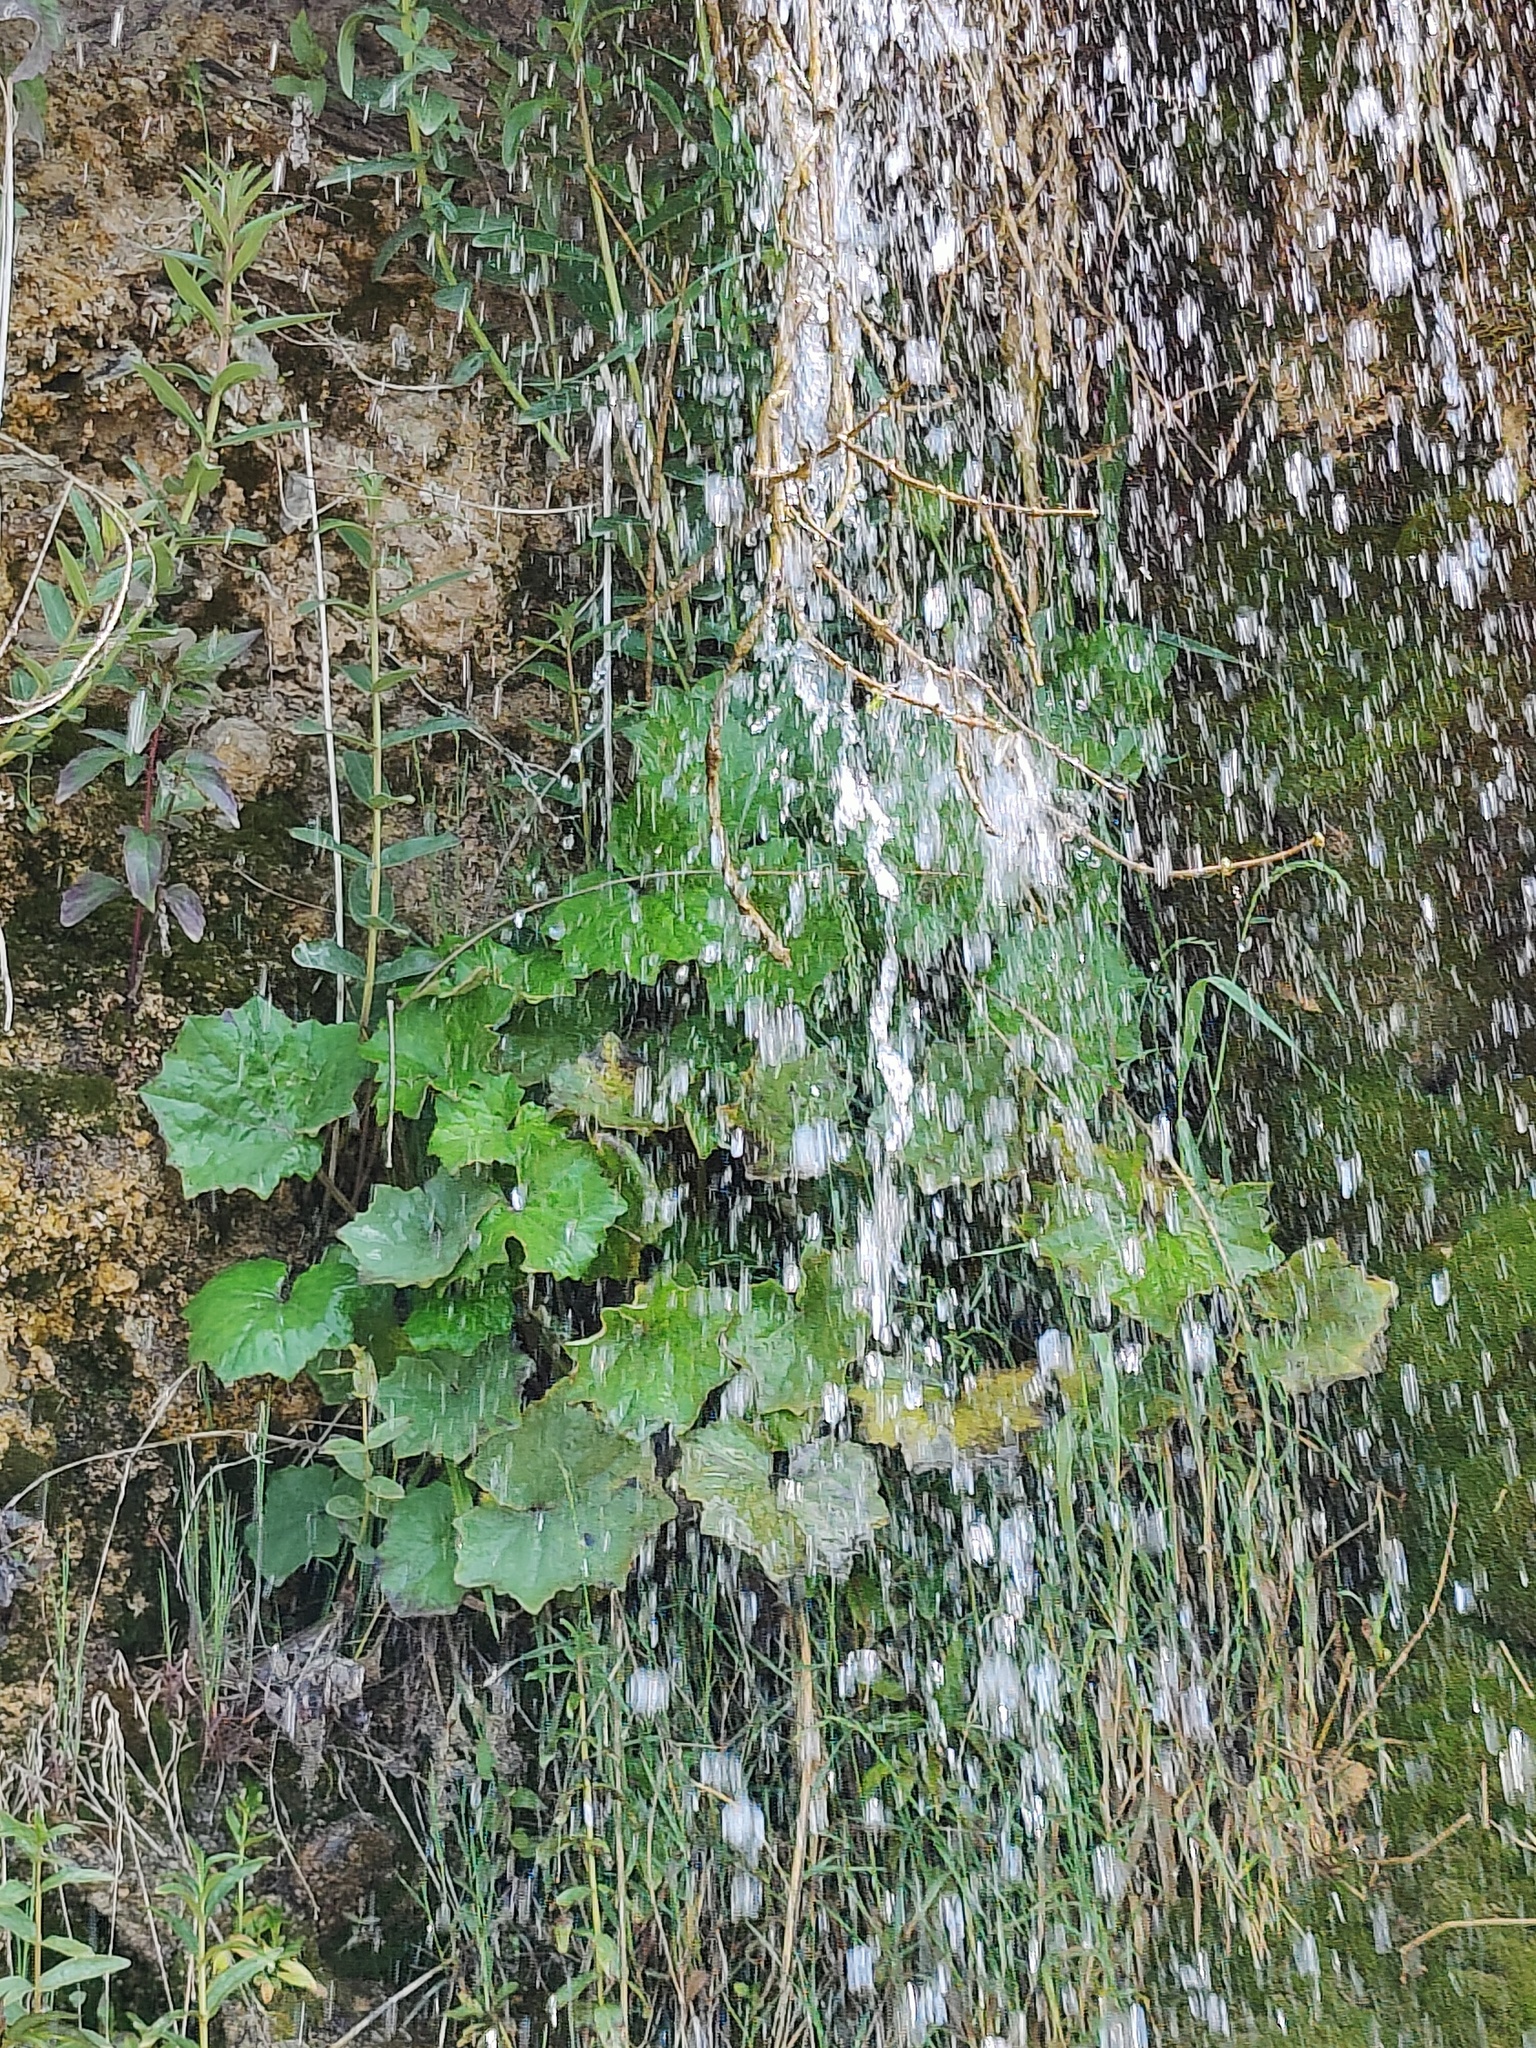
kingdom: Plantae
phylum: Tracheophyta
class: Magnoliopsida
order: Asterales
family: Asteraceae
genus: Tussilago
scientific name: Tussilago farfara
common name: Coltsfoot
